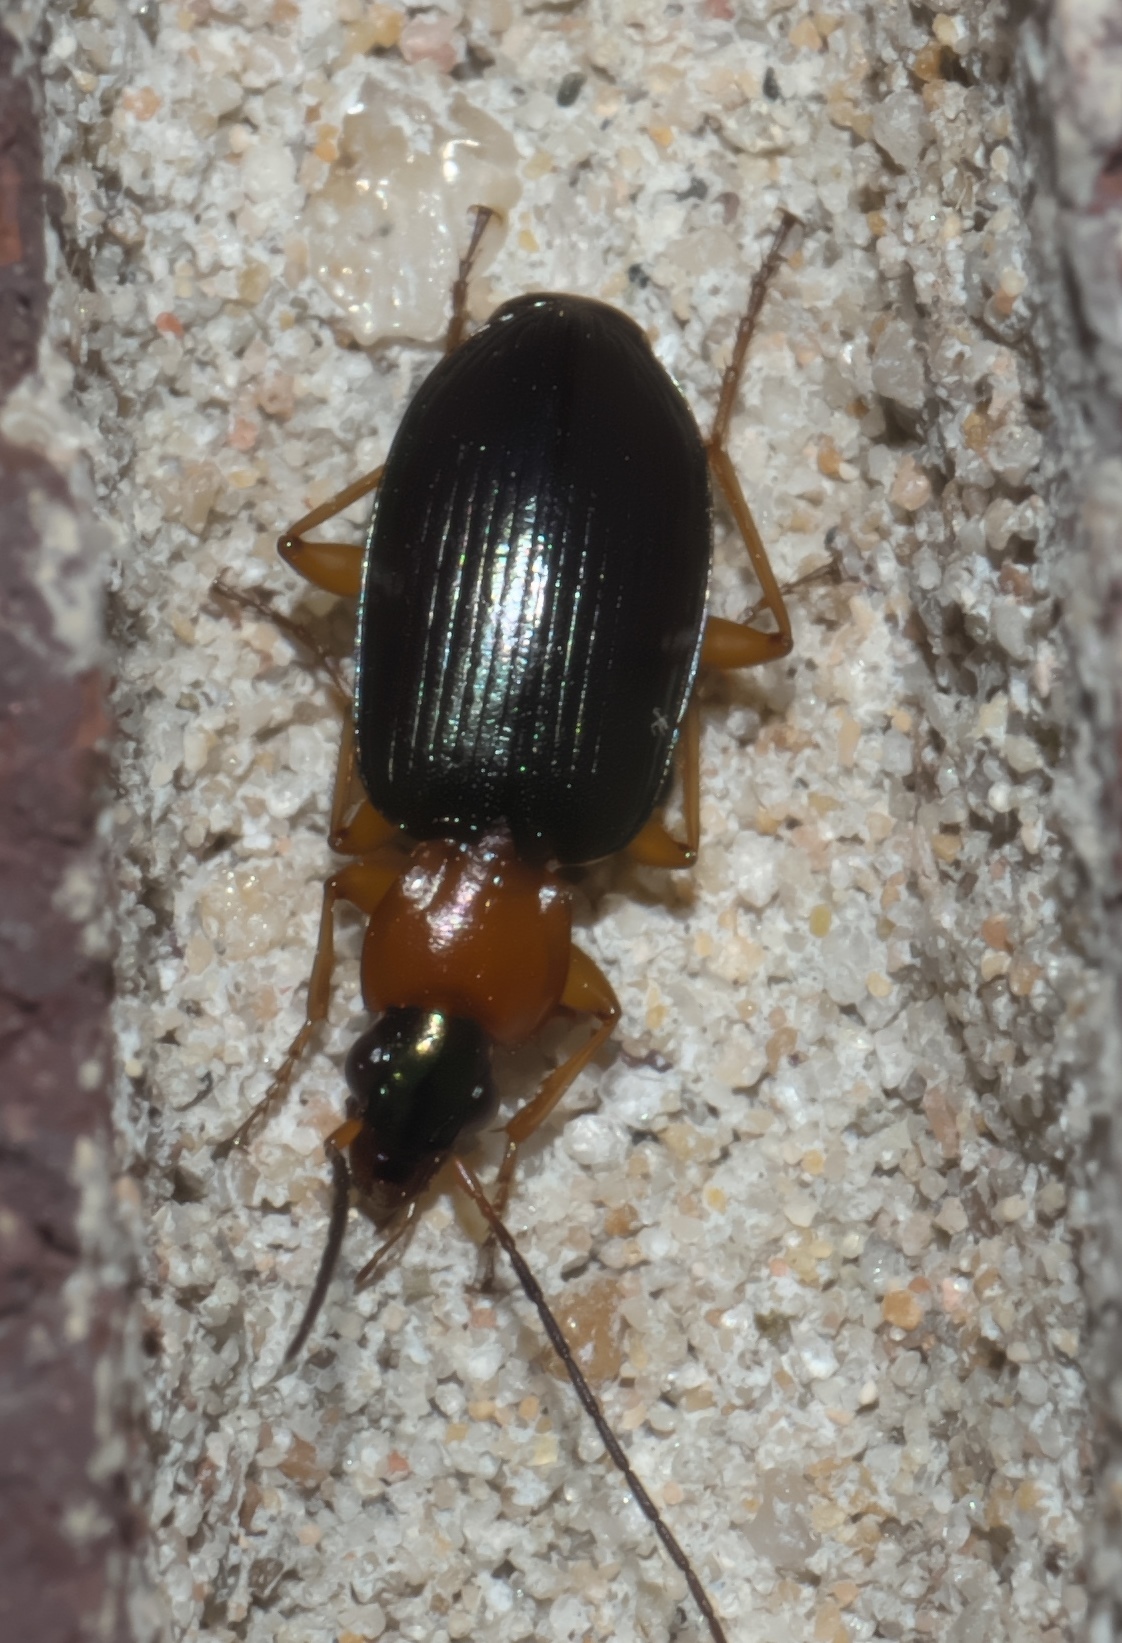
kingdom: Animalia
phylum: Arthropoda
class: Insecta
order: Coleoptera
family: Carabidae
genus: Agonum
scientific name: Agonum decorum
